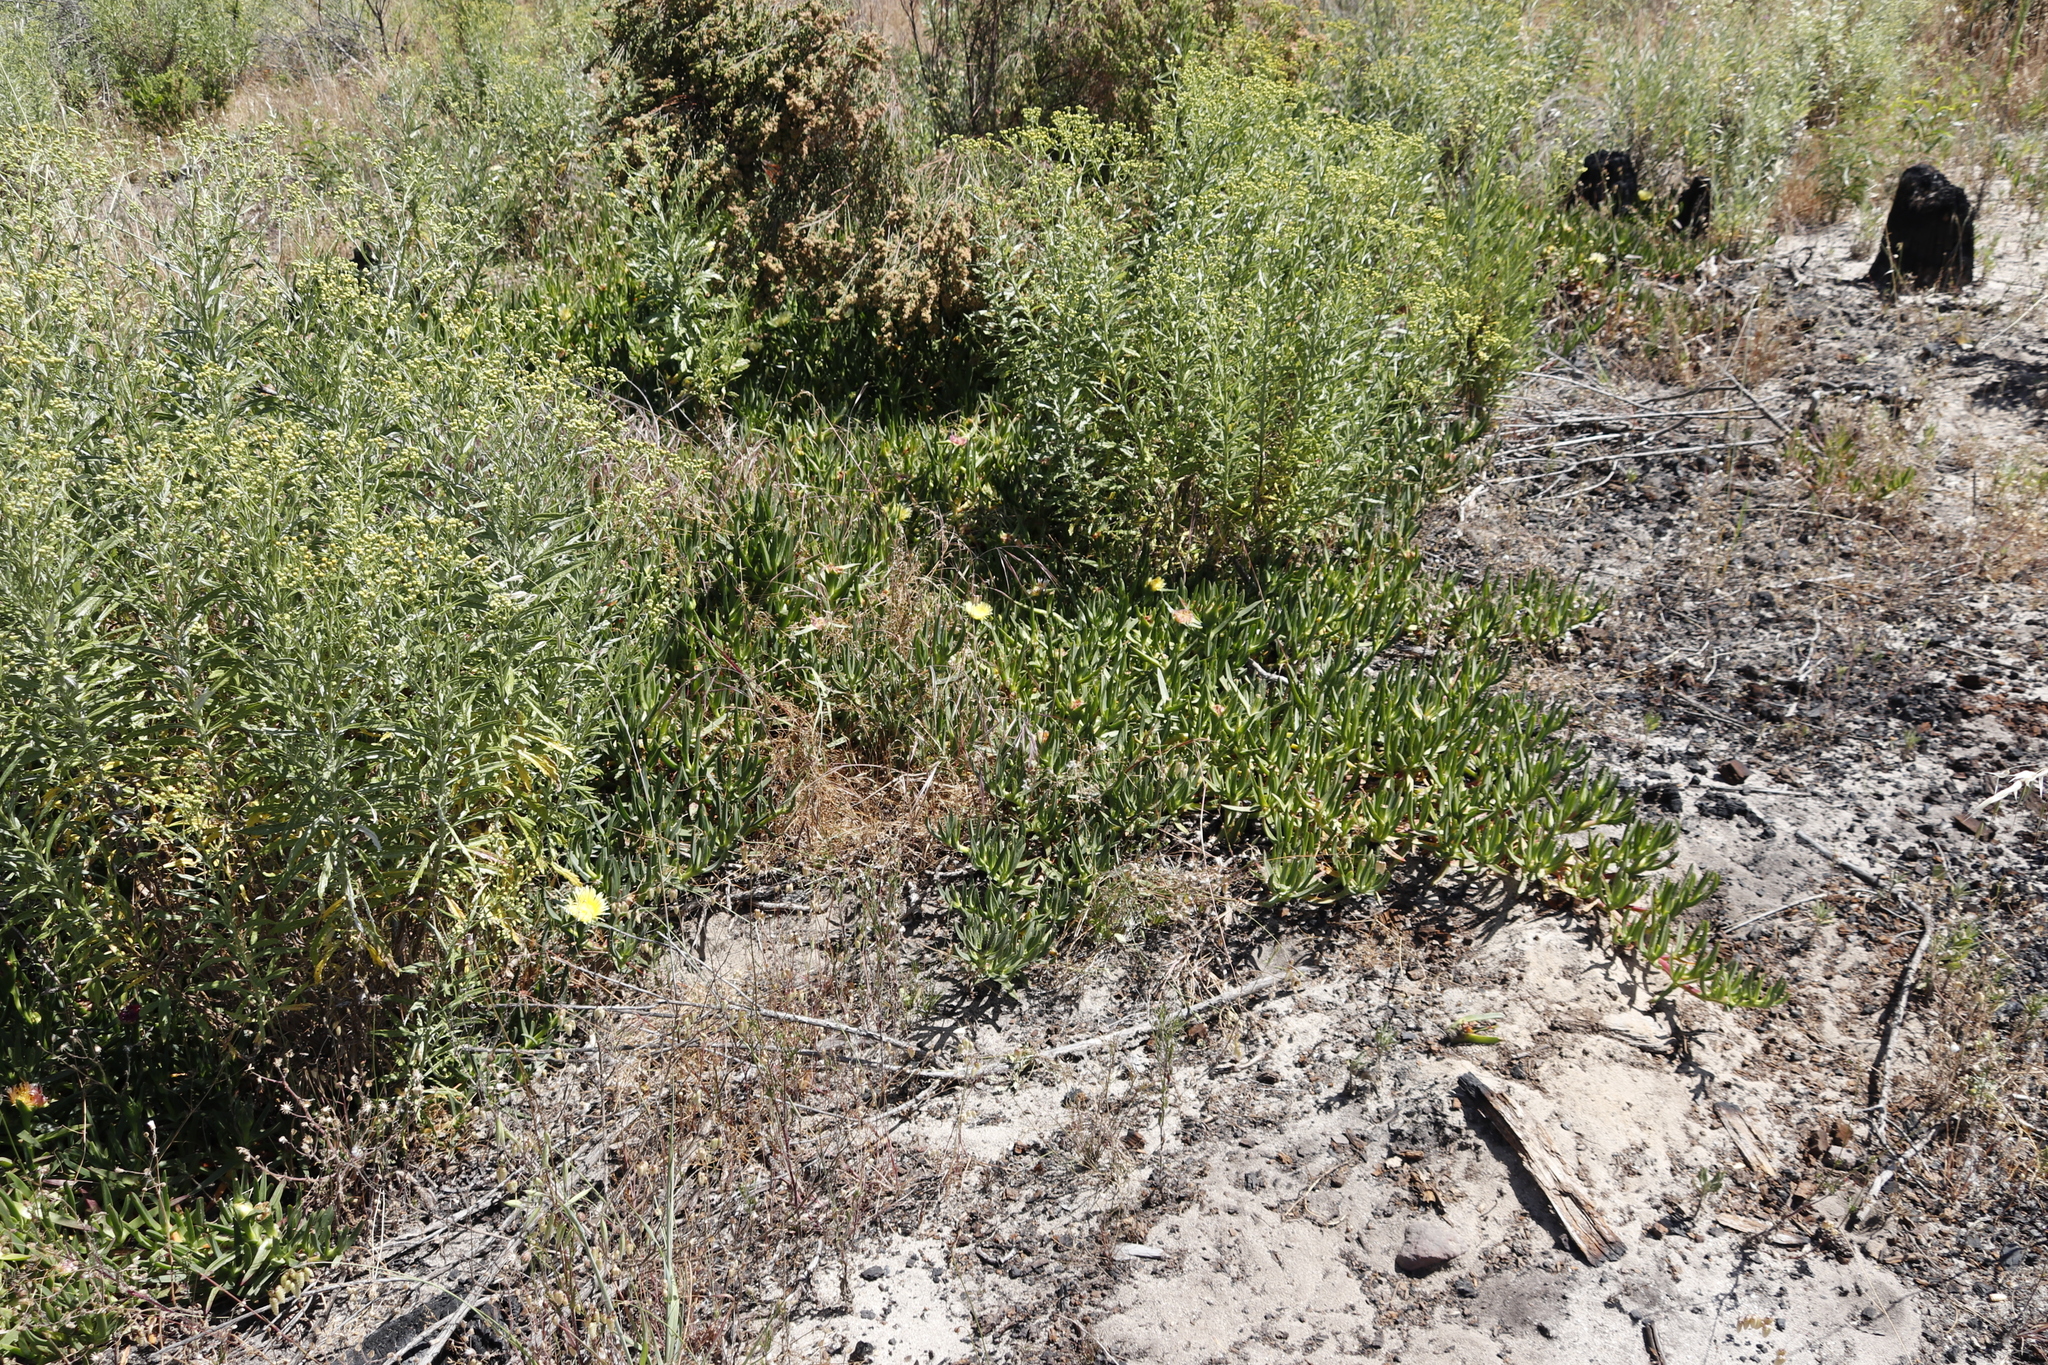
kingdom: Plantae
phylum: Tracheophyta
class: Magnoliopsida
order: Caryophyllales
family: Aizoaceae
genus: Carpobrotus
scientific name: Carpobrotus edulis
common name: Hottentot-fig
